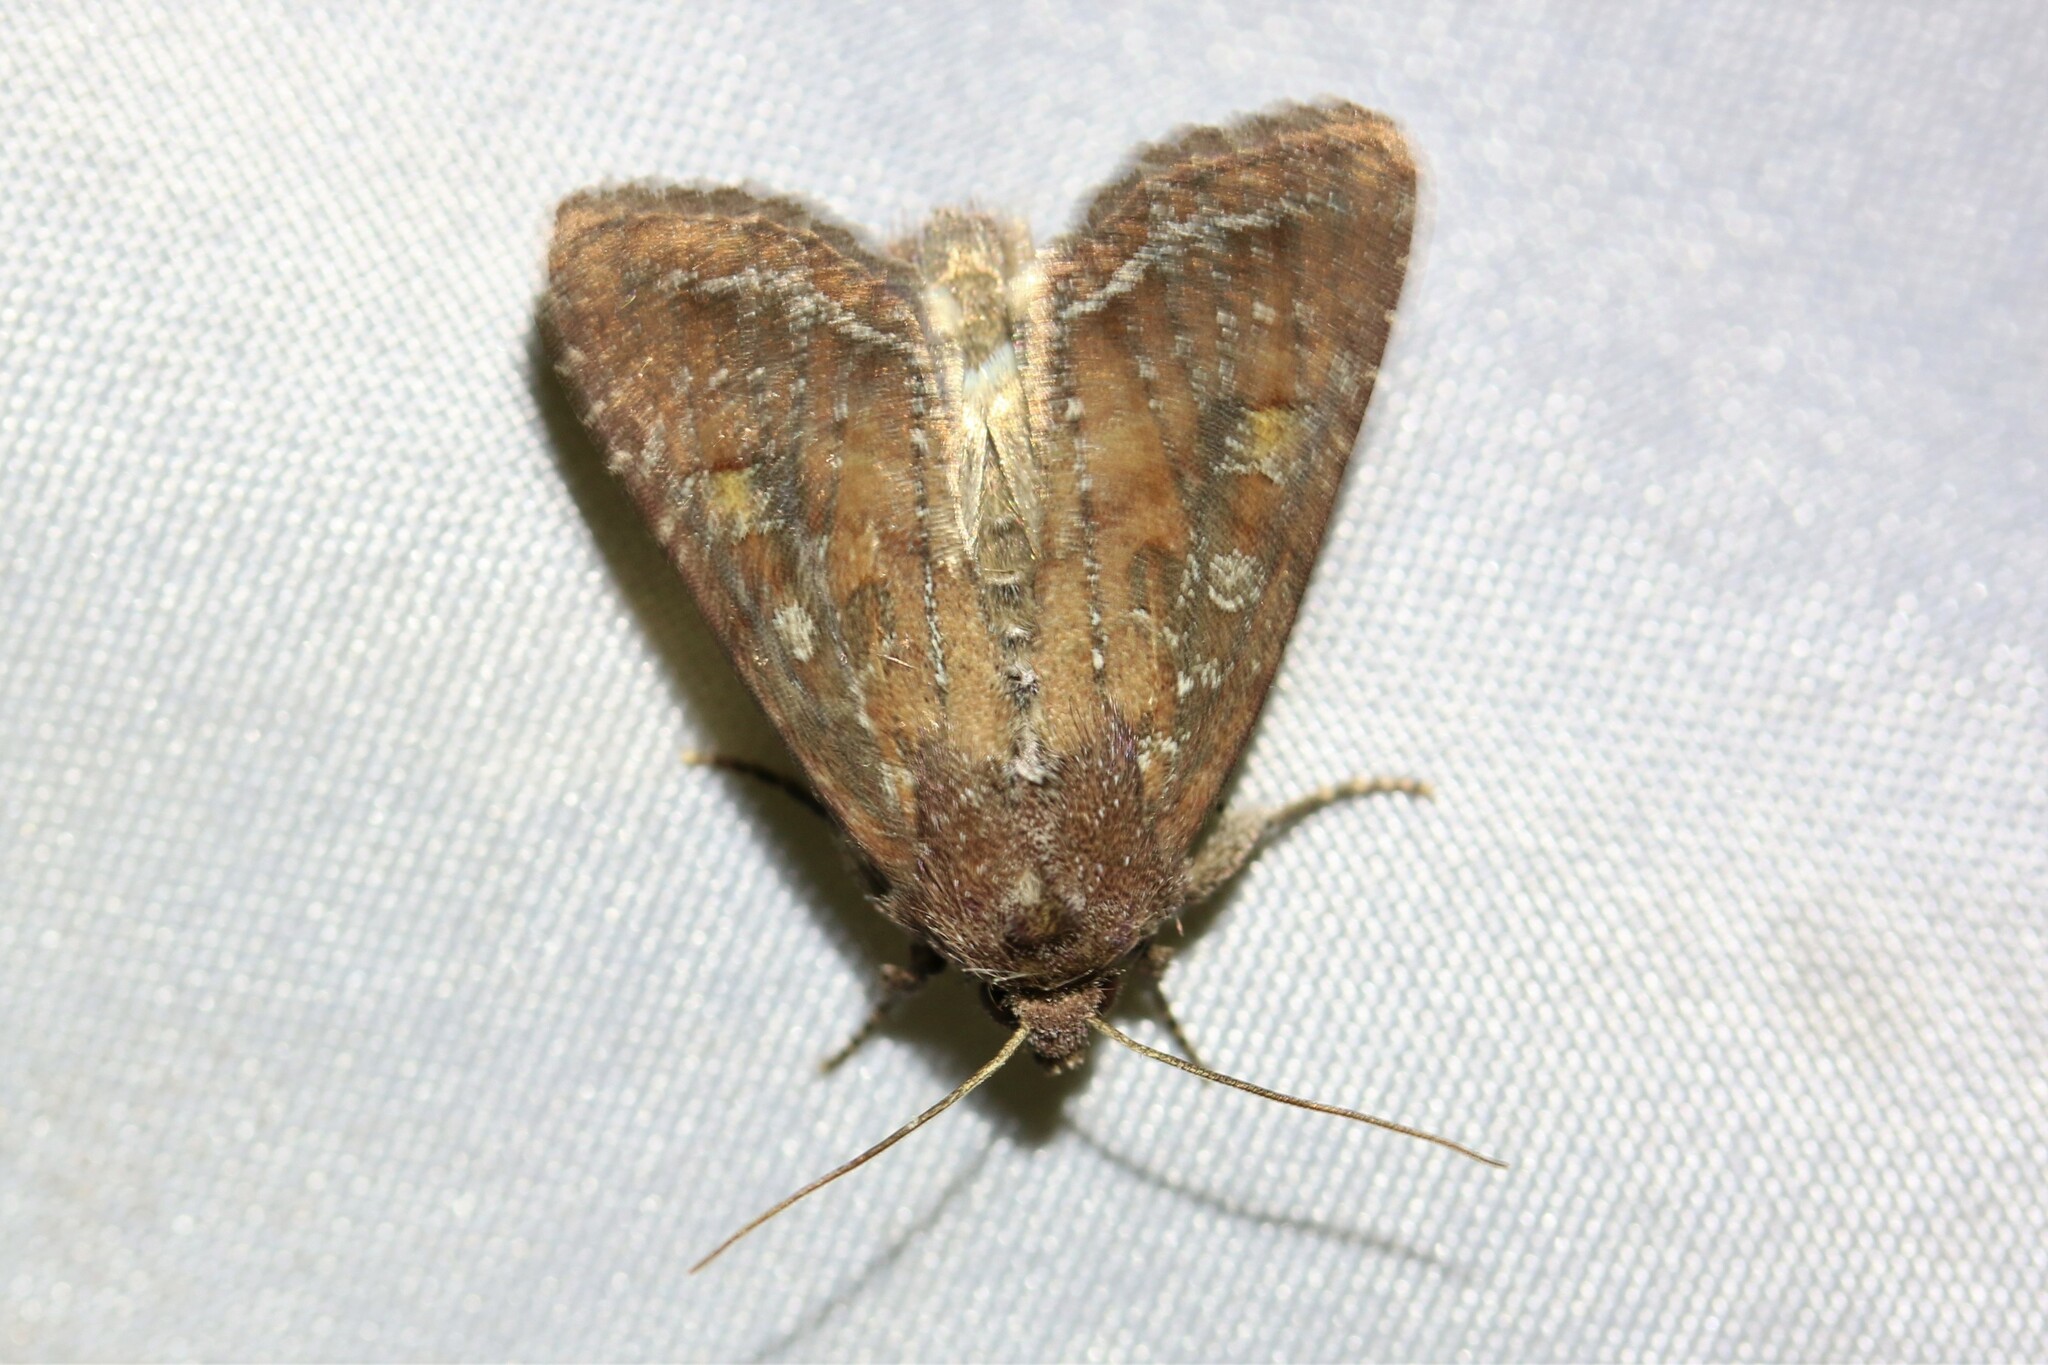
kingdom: Animalia
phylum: Arthropoda
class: Insecta
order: Lepidoptera
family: Noctuidae
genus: Lacanobia
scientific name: Lacanobia oleracea
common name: Bright-line brown-eye
